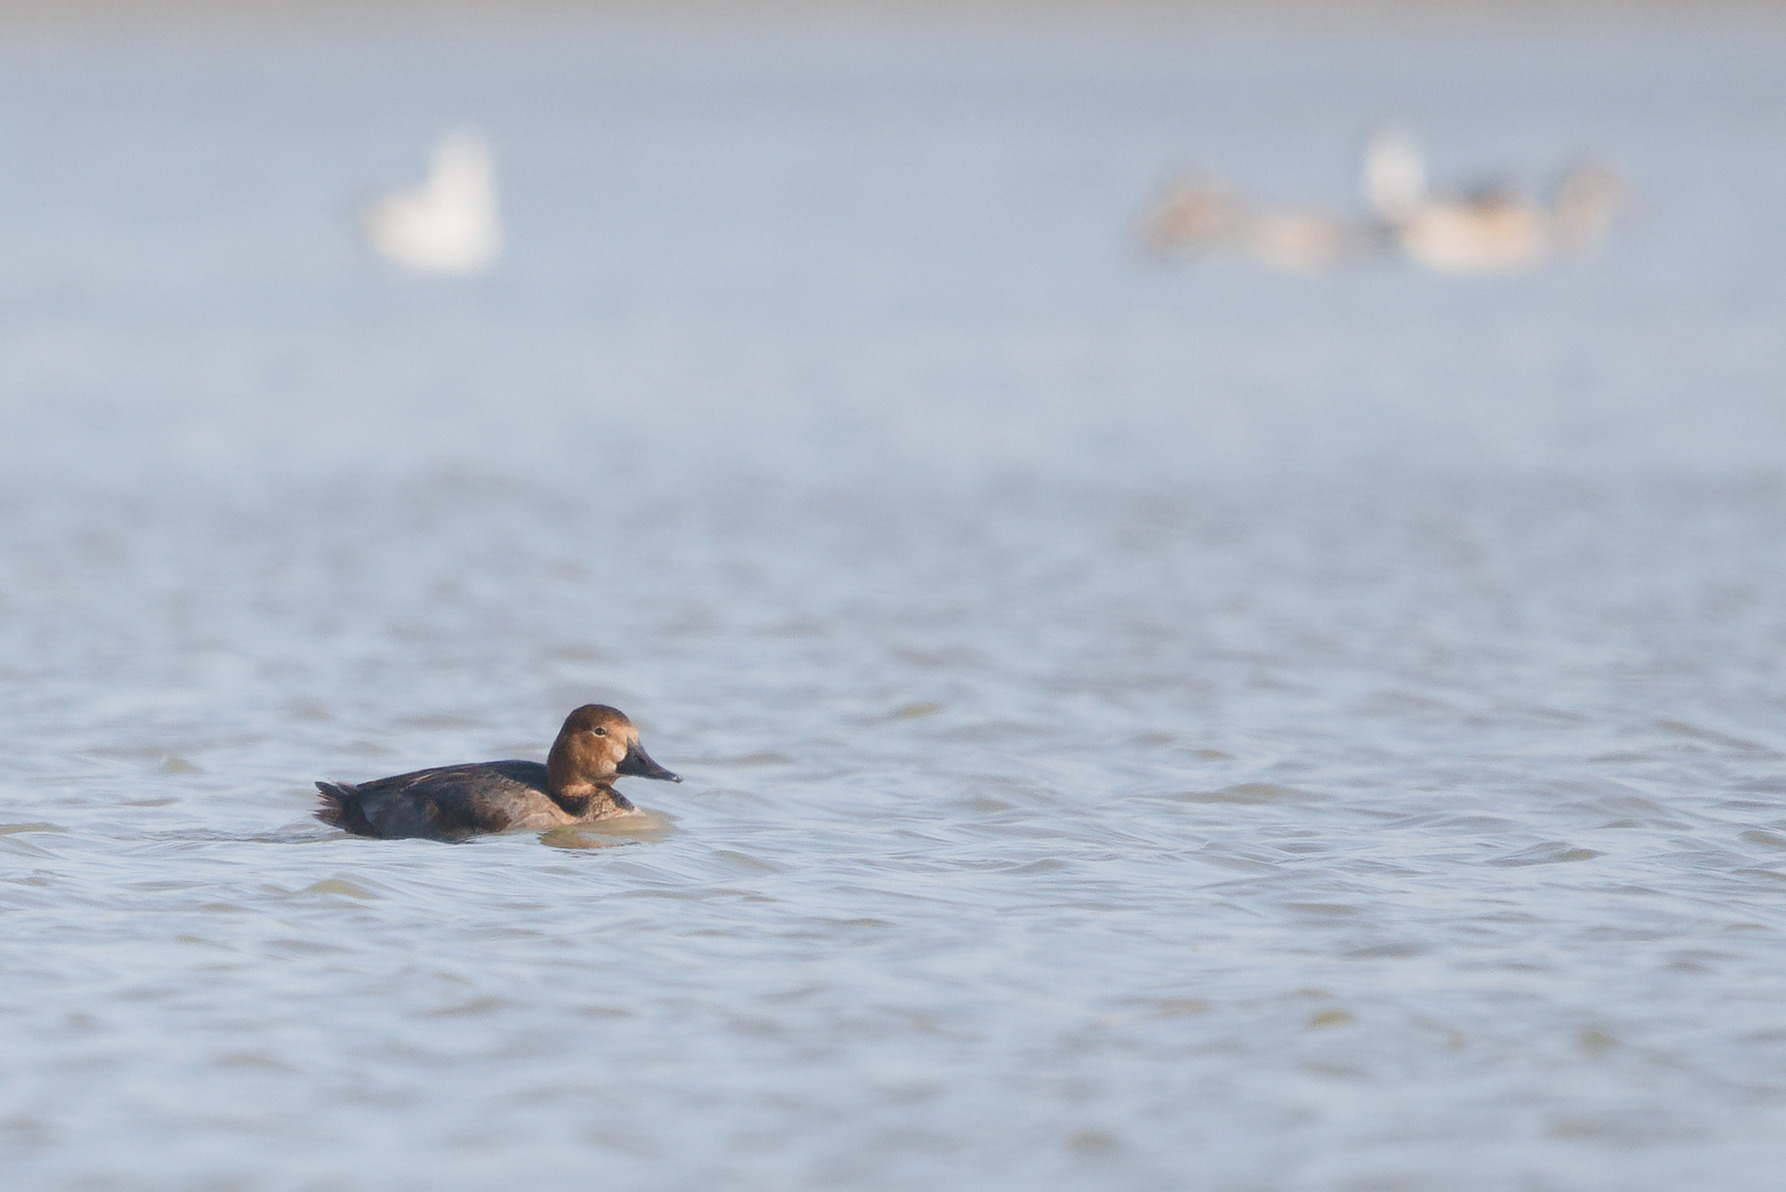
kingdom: Animalia
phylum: Chordata
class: Aves
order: Anseriformes
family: Anatidae
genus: Aythya
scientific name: Aythya ferina
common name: Common pochard
